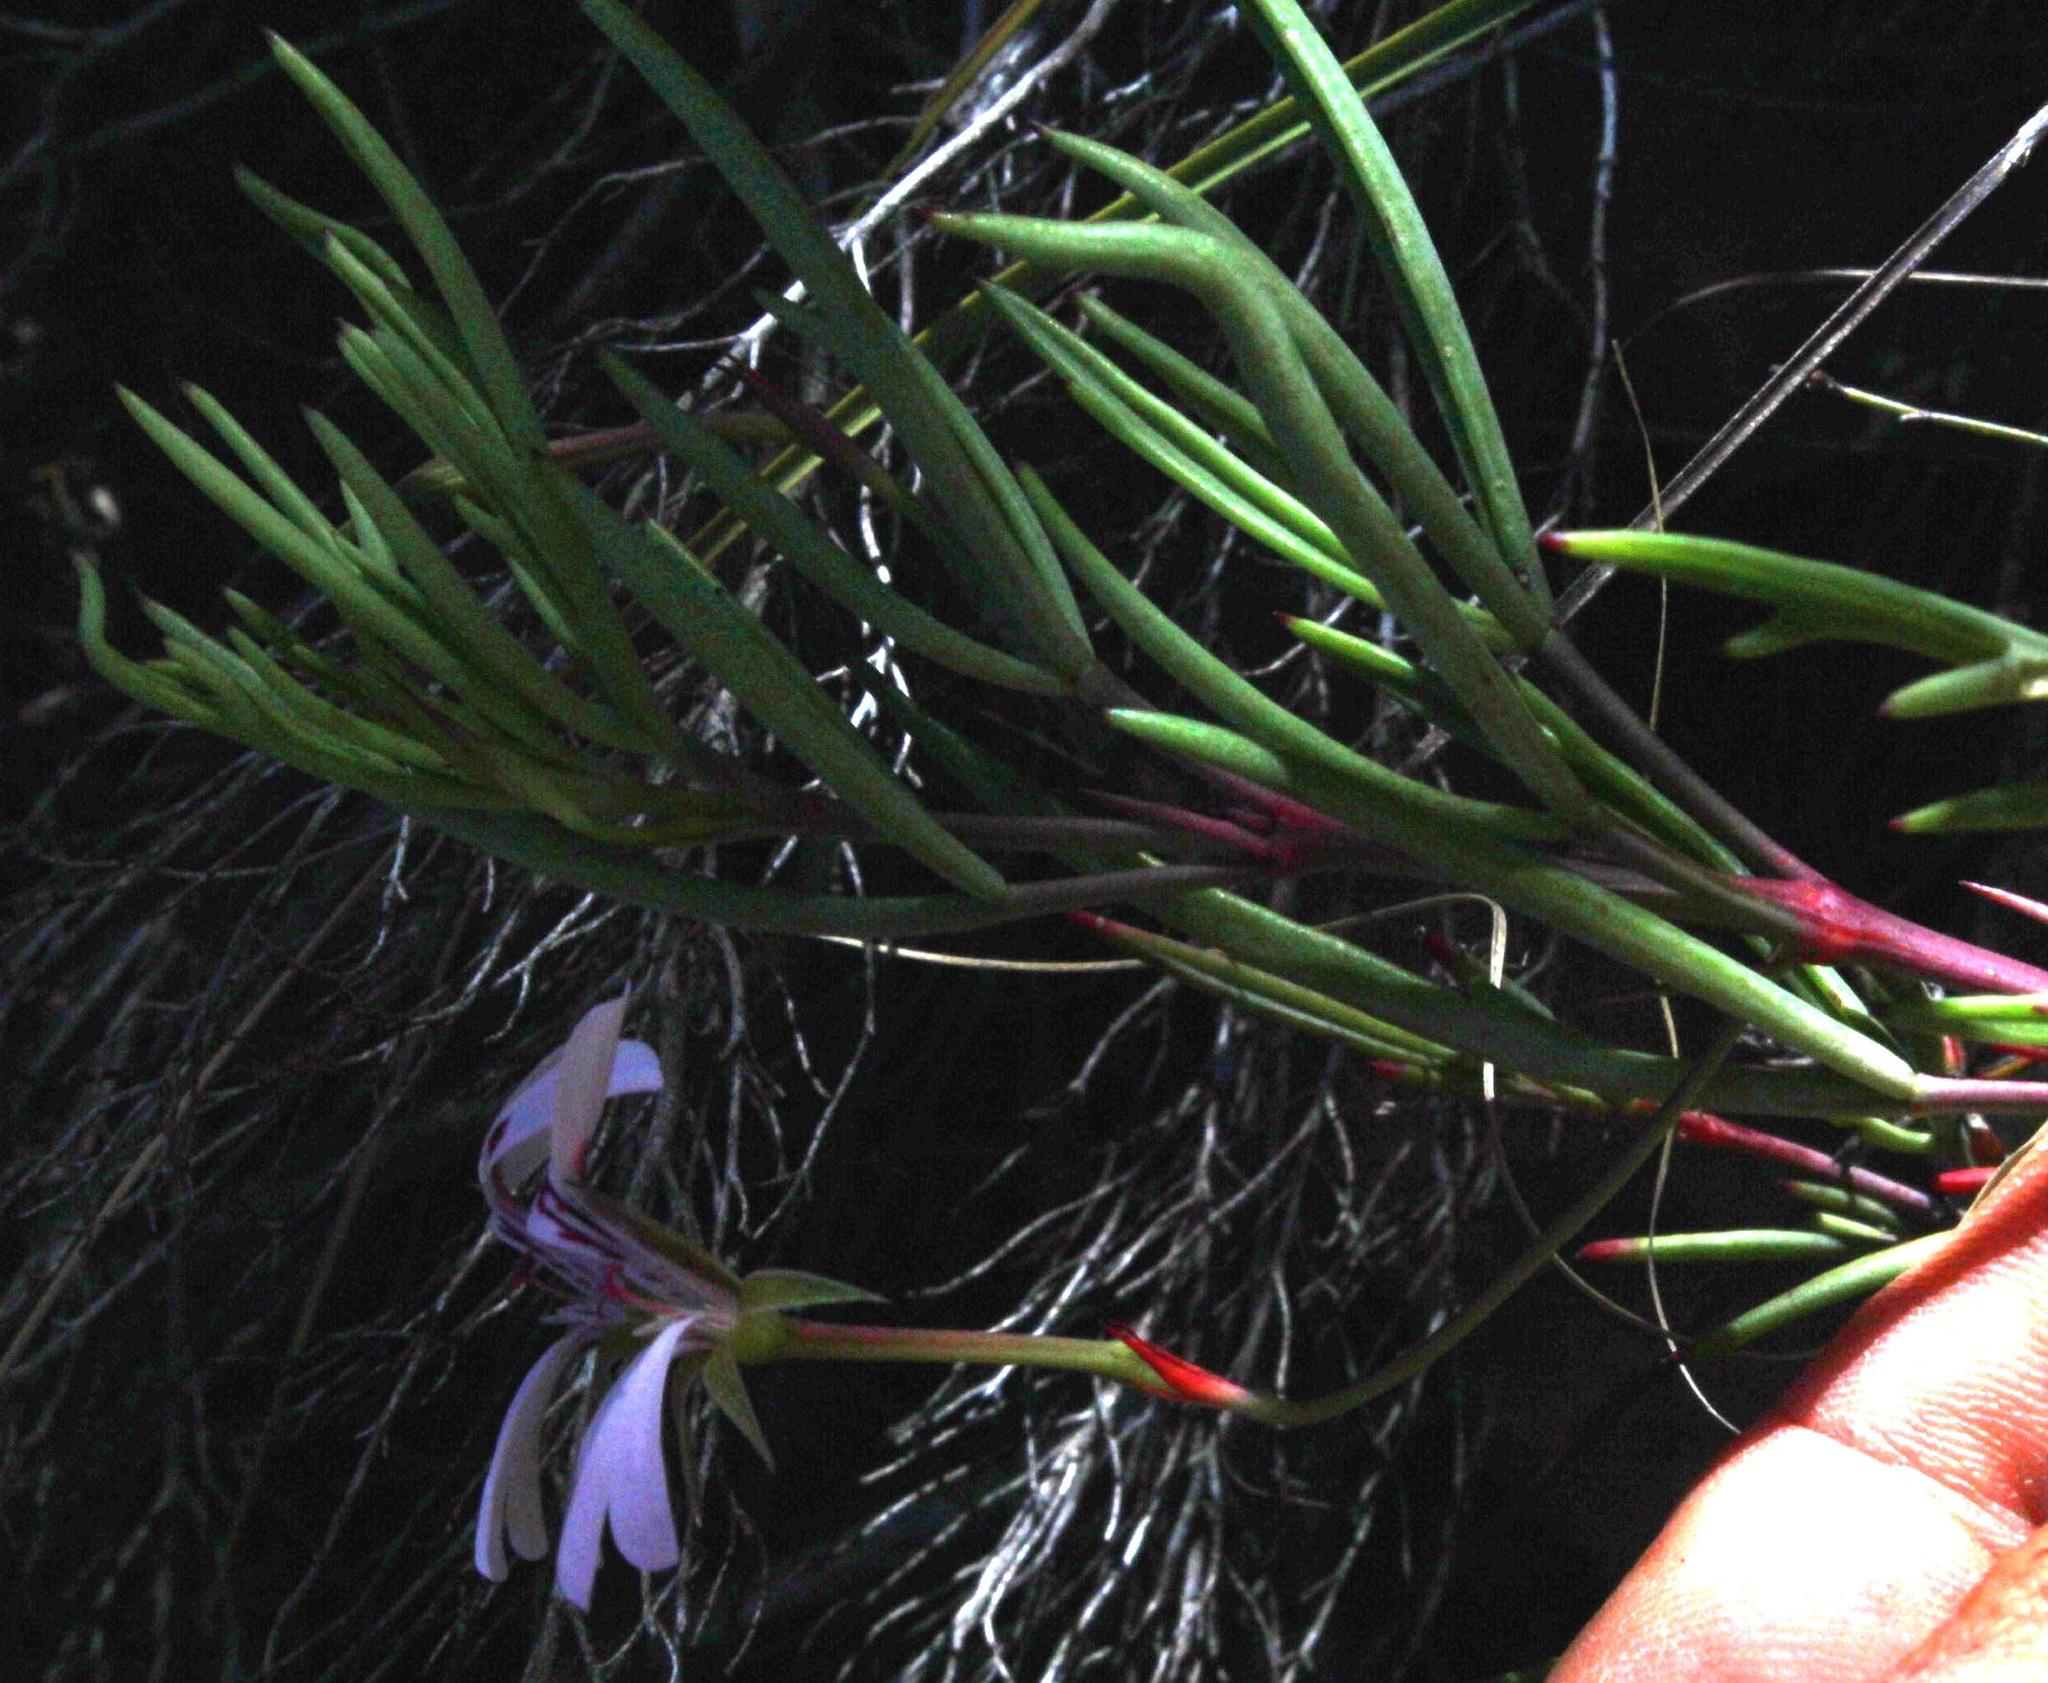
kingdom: Plantae
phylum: Tracheophyta
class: Magnoliopsida
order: Geraniales
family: Geraniaceae
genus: Pelargonium
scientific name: Pelargonium laevigatum
